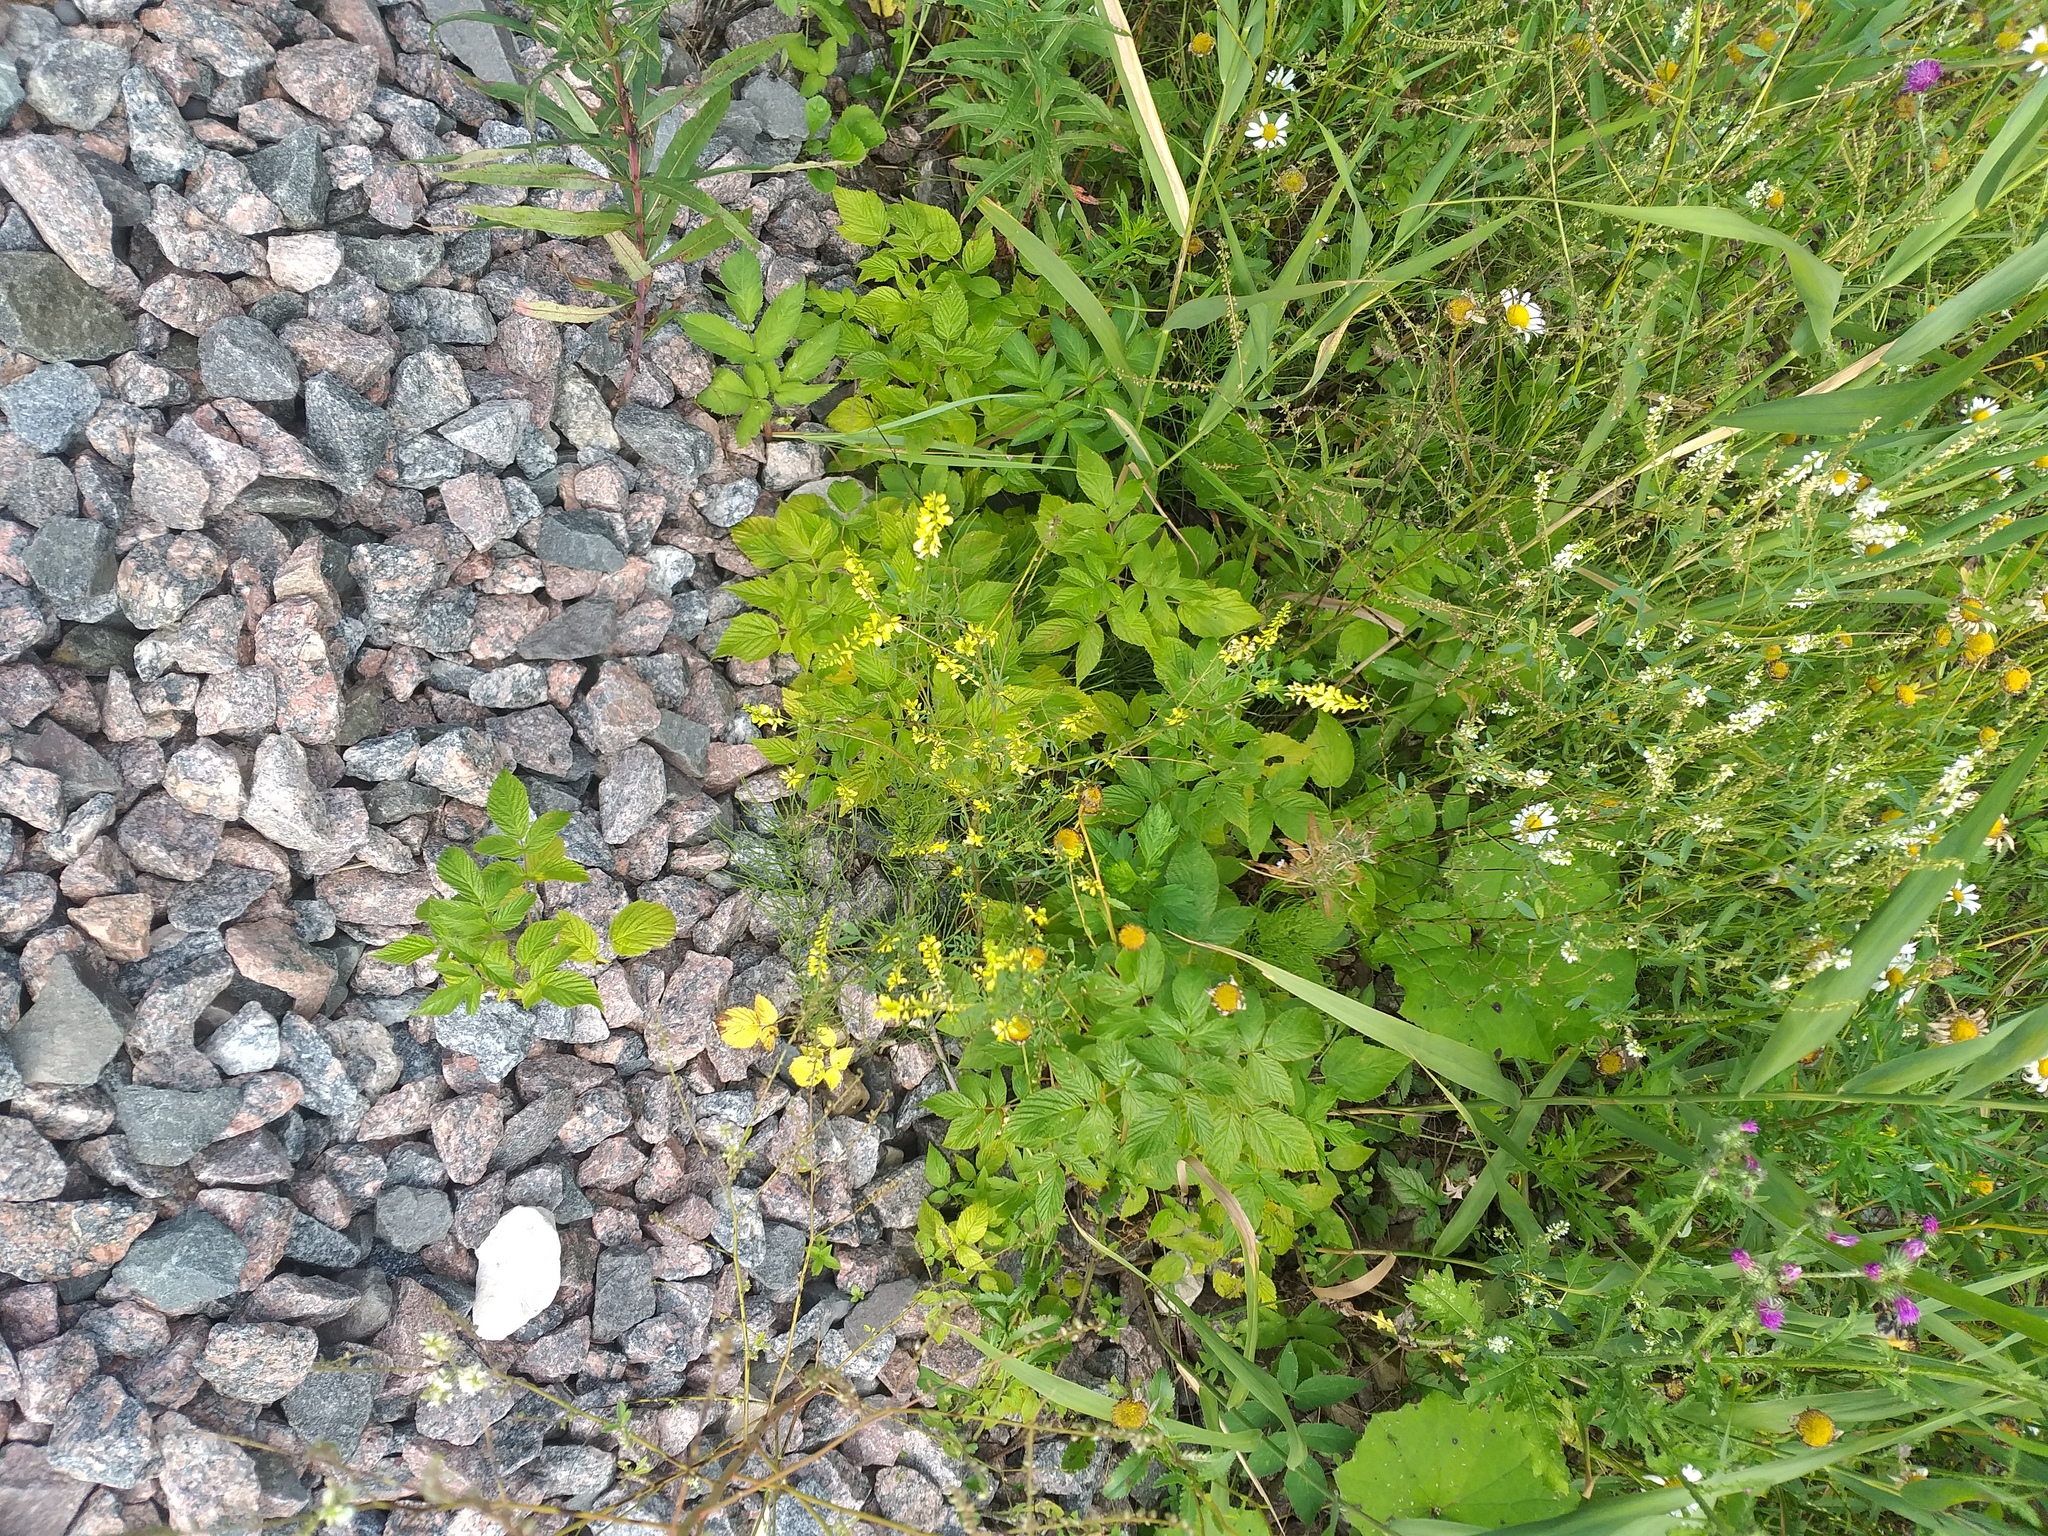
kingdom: Plantae
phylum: Tracheophyta
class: Magnoliopsida
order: Fabales
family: Fabaceae
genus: Melilotus
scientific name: Melilotus officinalis
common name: Sweetclover
